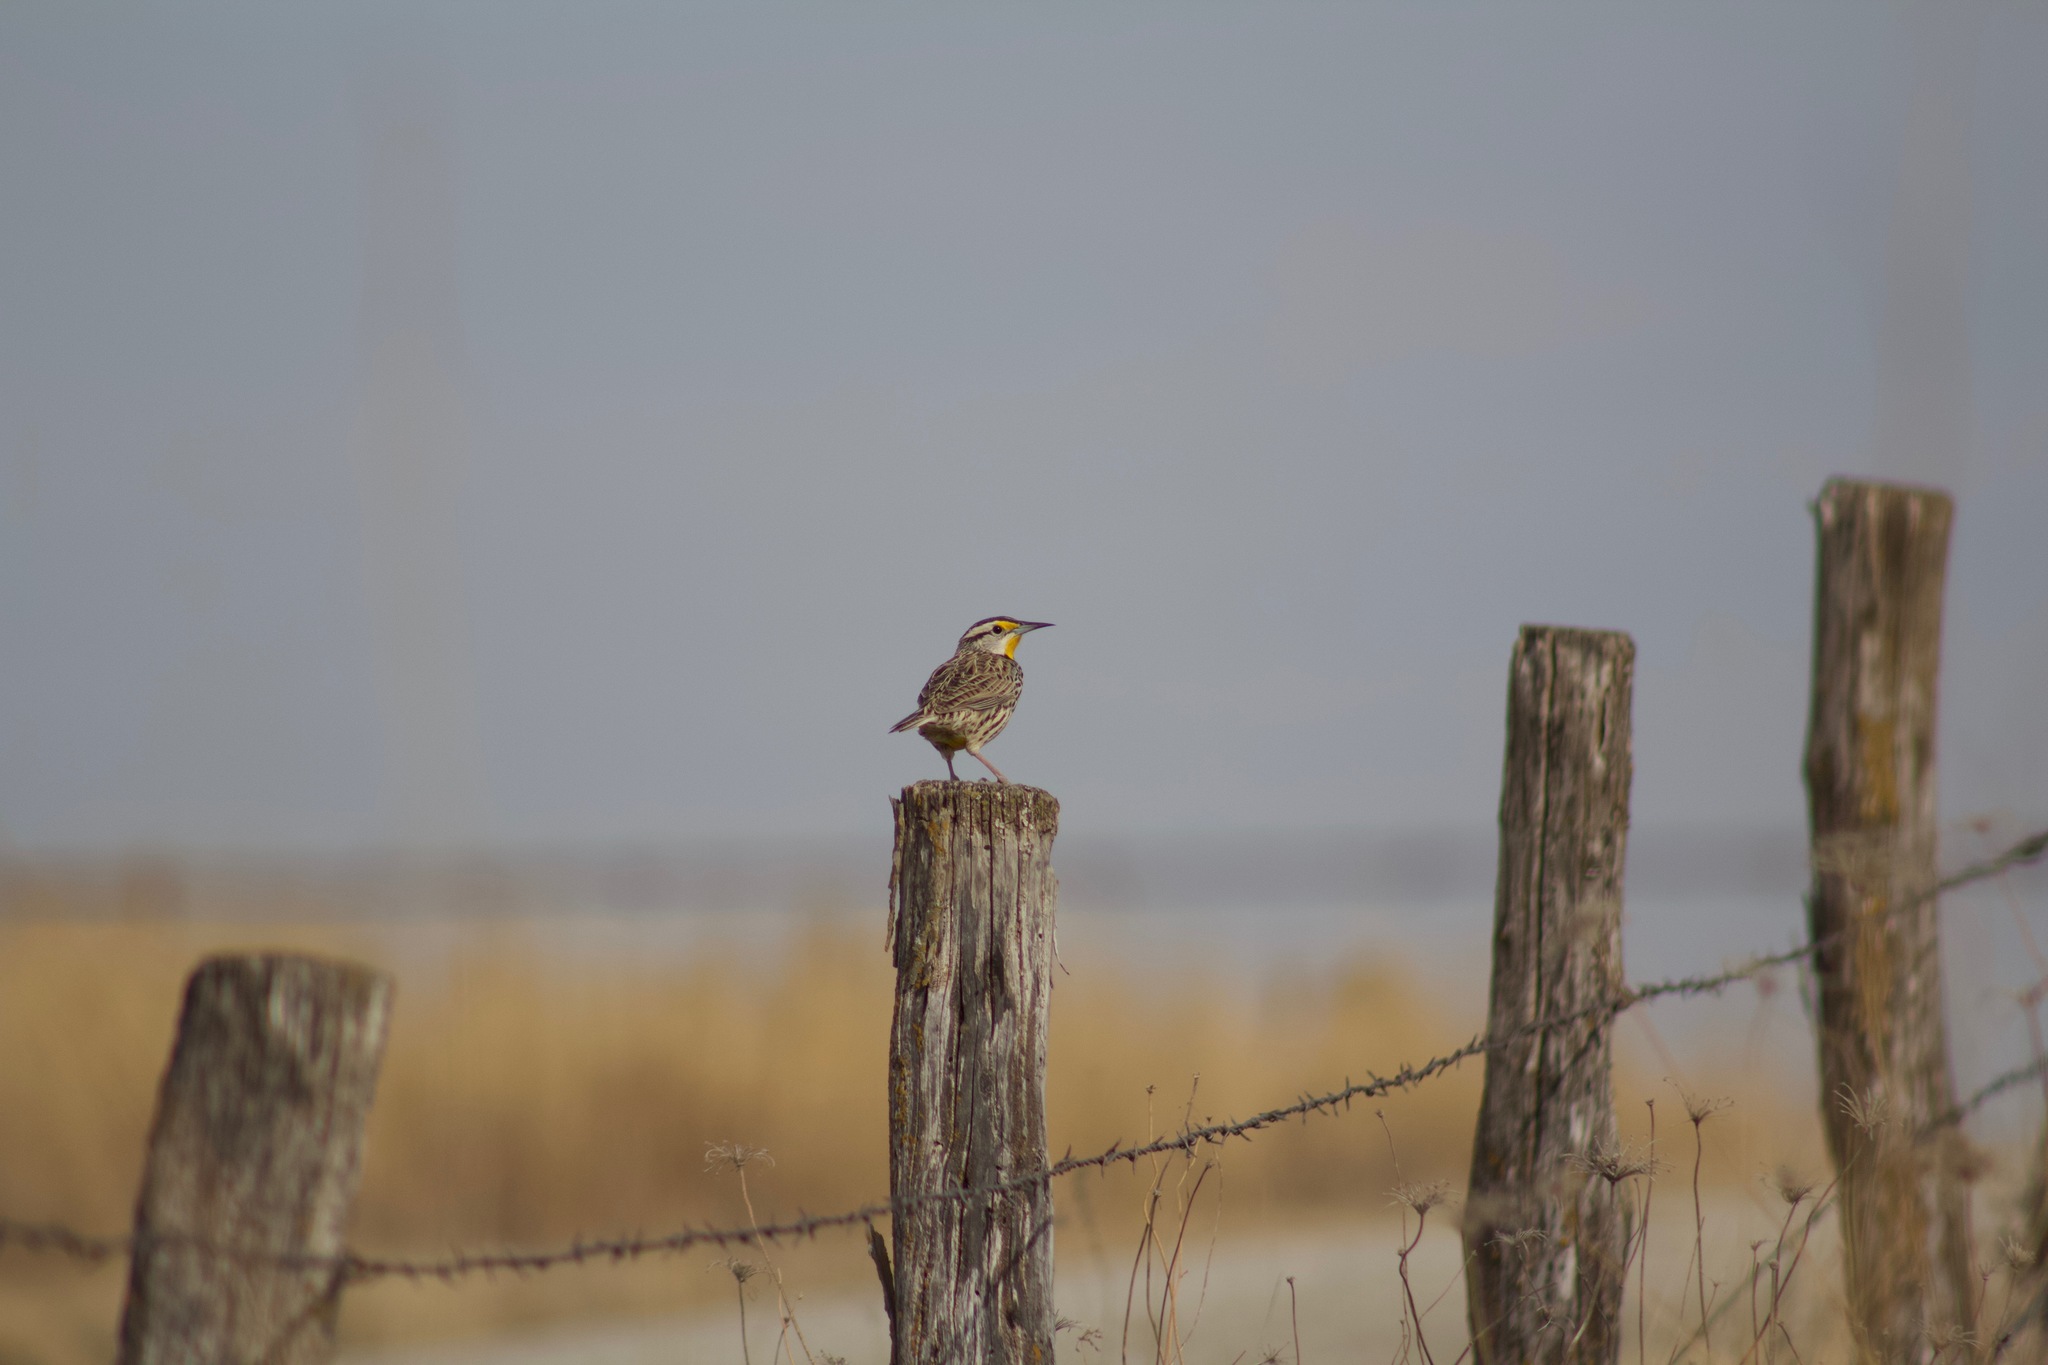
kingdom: Animalia
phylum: Chordata
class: Aves
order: Passeriformes
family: Icteridae
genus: Sturnella
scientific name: Sturnella magna
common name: Eastern meadowlark
